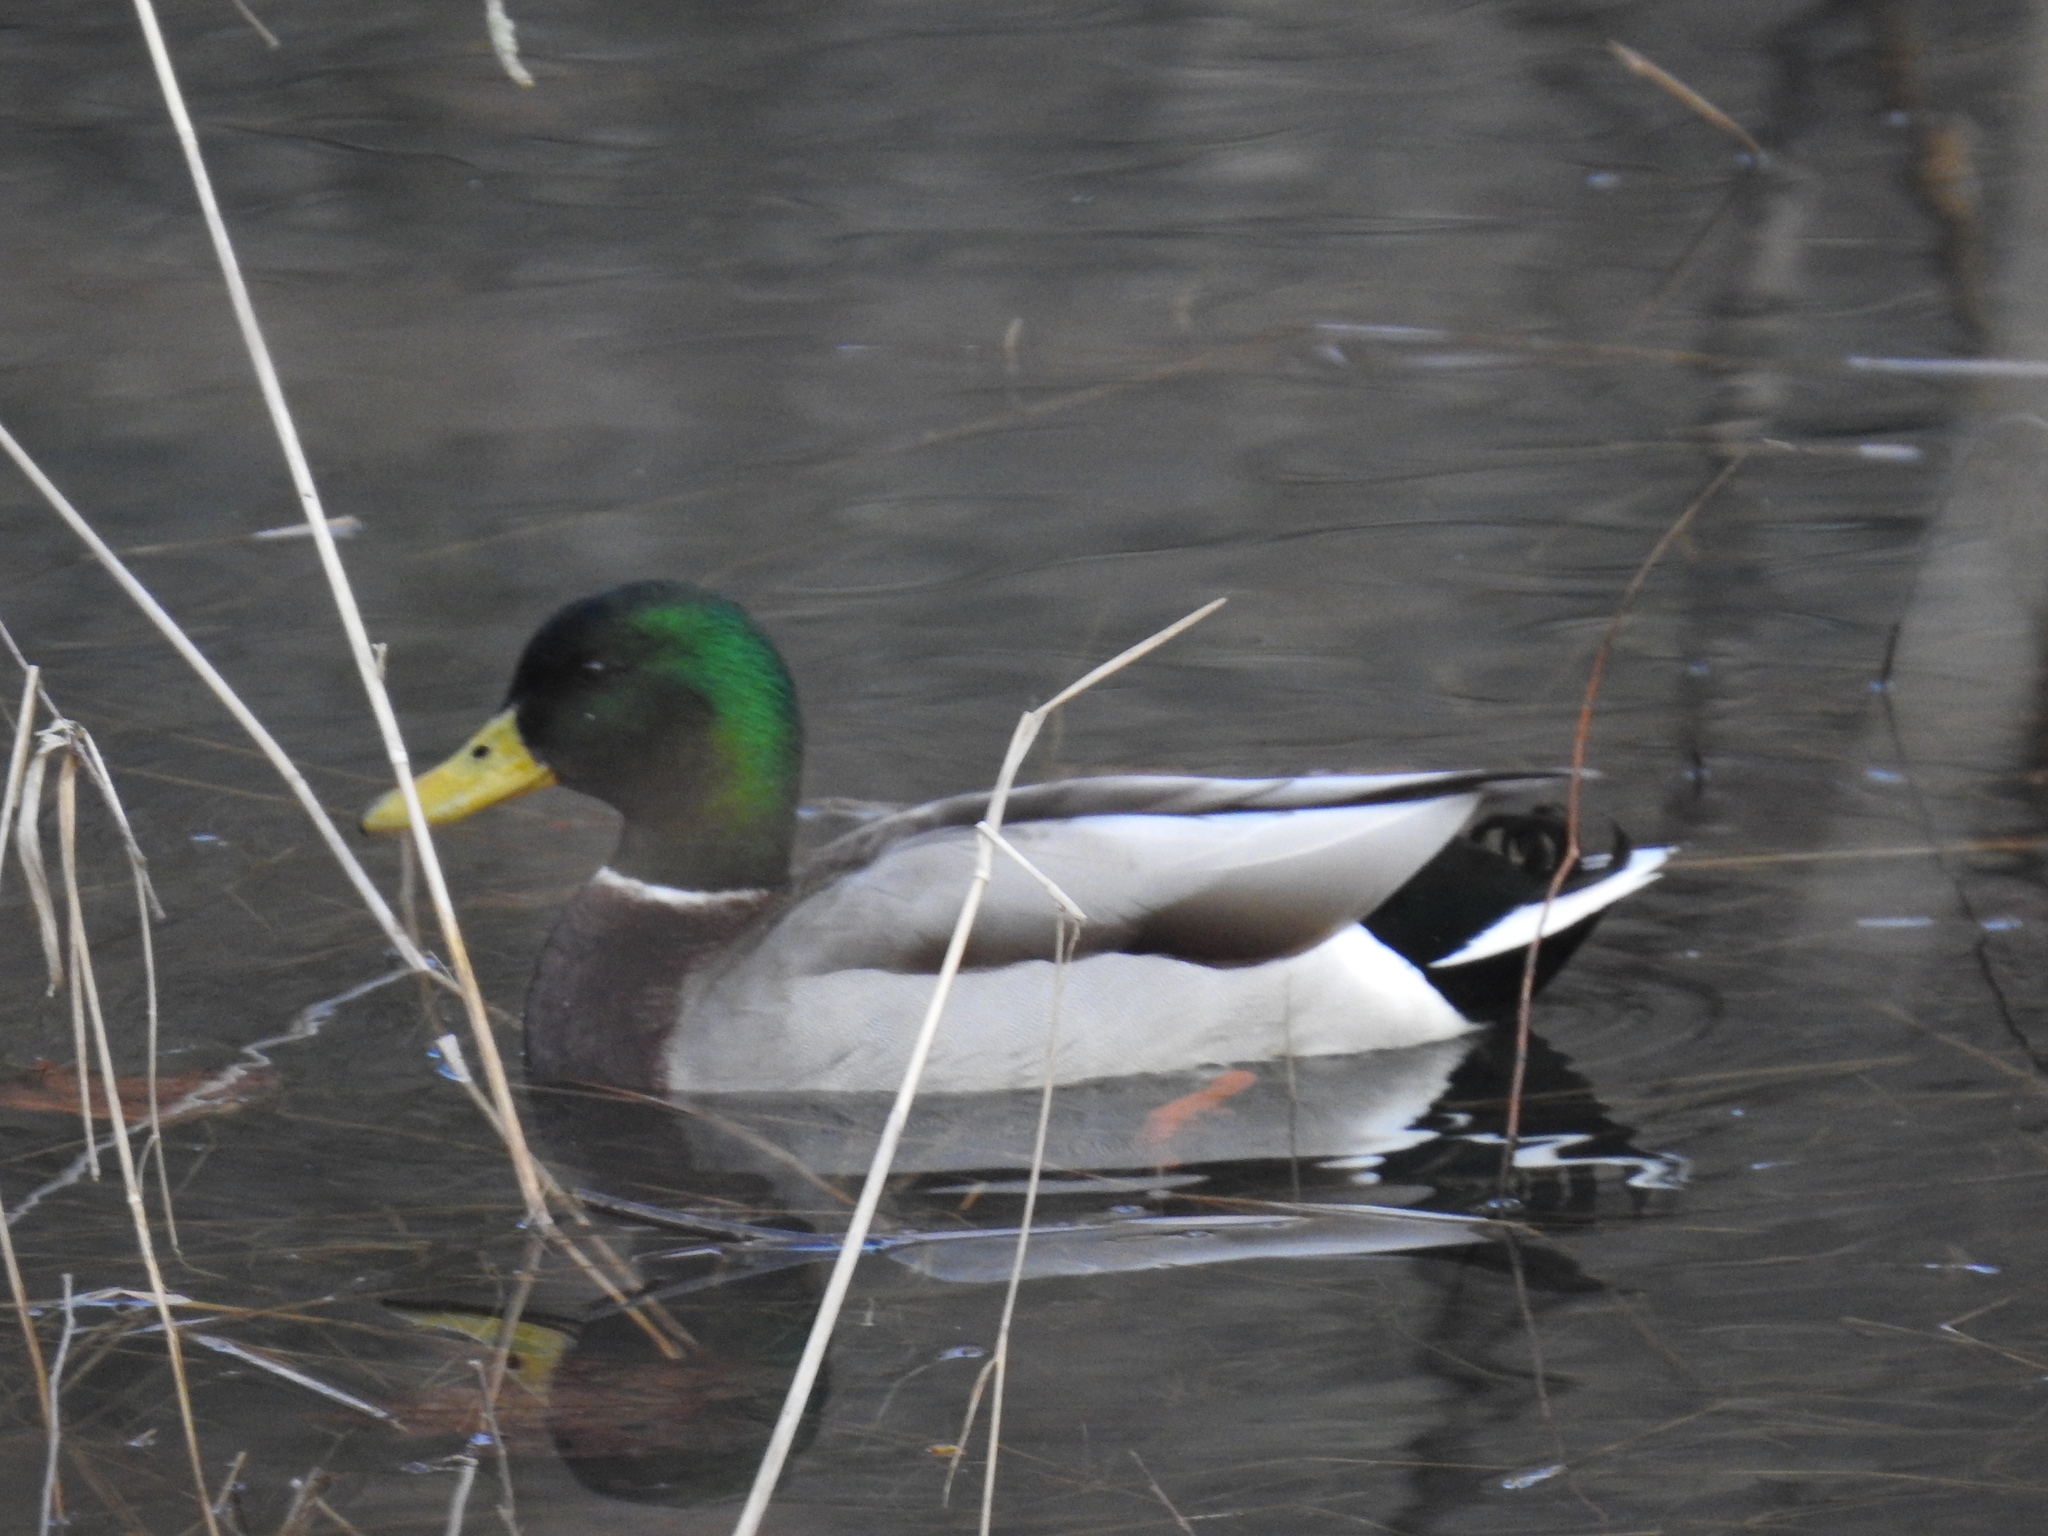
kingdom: Animalia
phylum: Chordata
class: Aves
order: Anseriformes
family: Anatidae
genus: Anas
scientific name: Anas platyrhynchos
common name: Mallard
